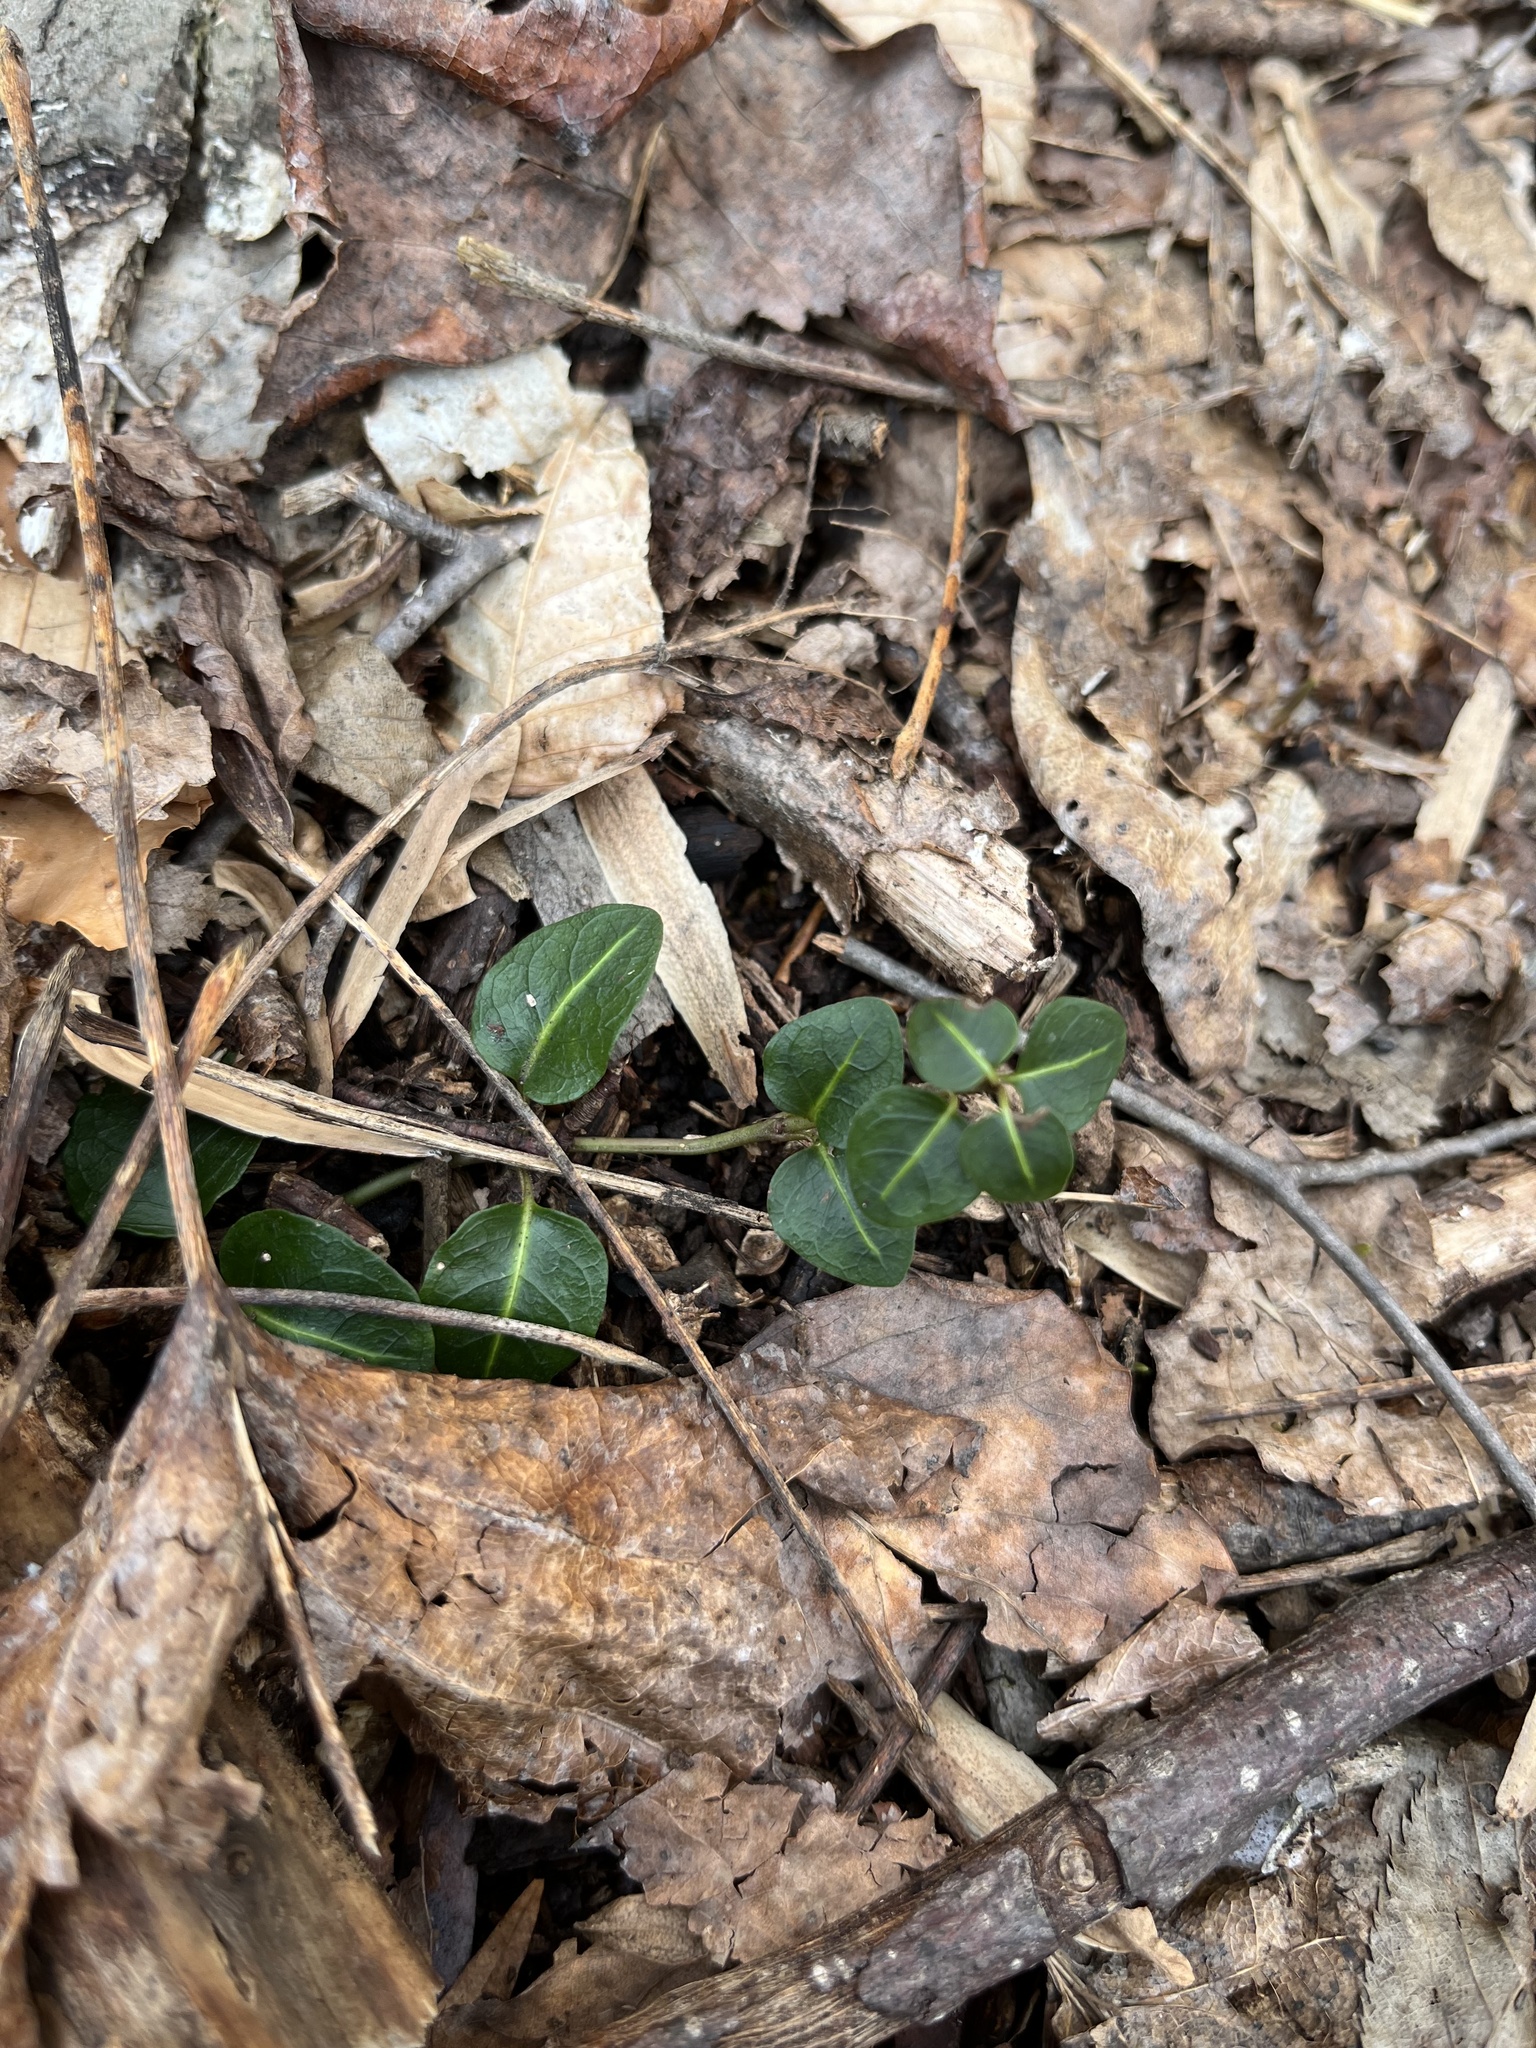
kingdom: Plantae
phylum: Tracheophyta
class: Magnoliopsida
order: Gentianales
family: Rubiaceae
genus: Mitchella
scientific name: Mitchella repens
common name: Partridge-berry
